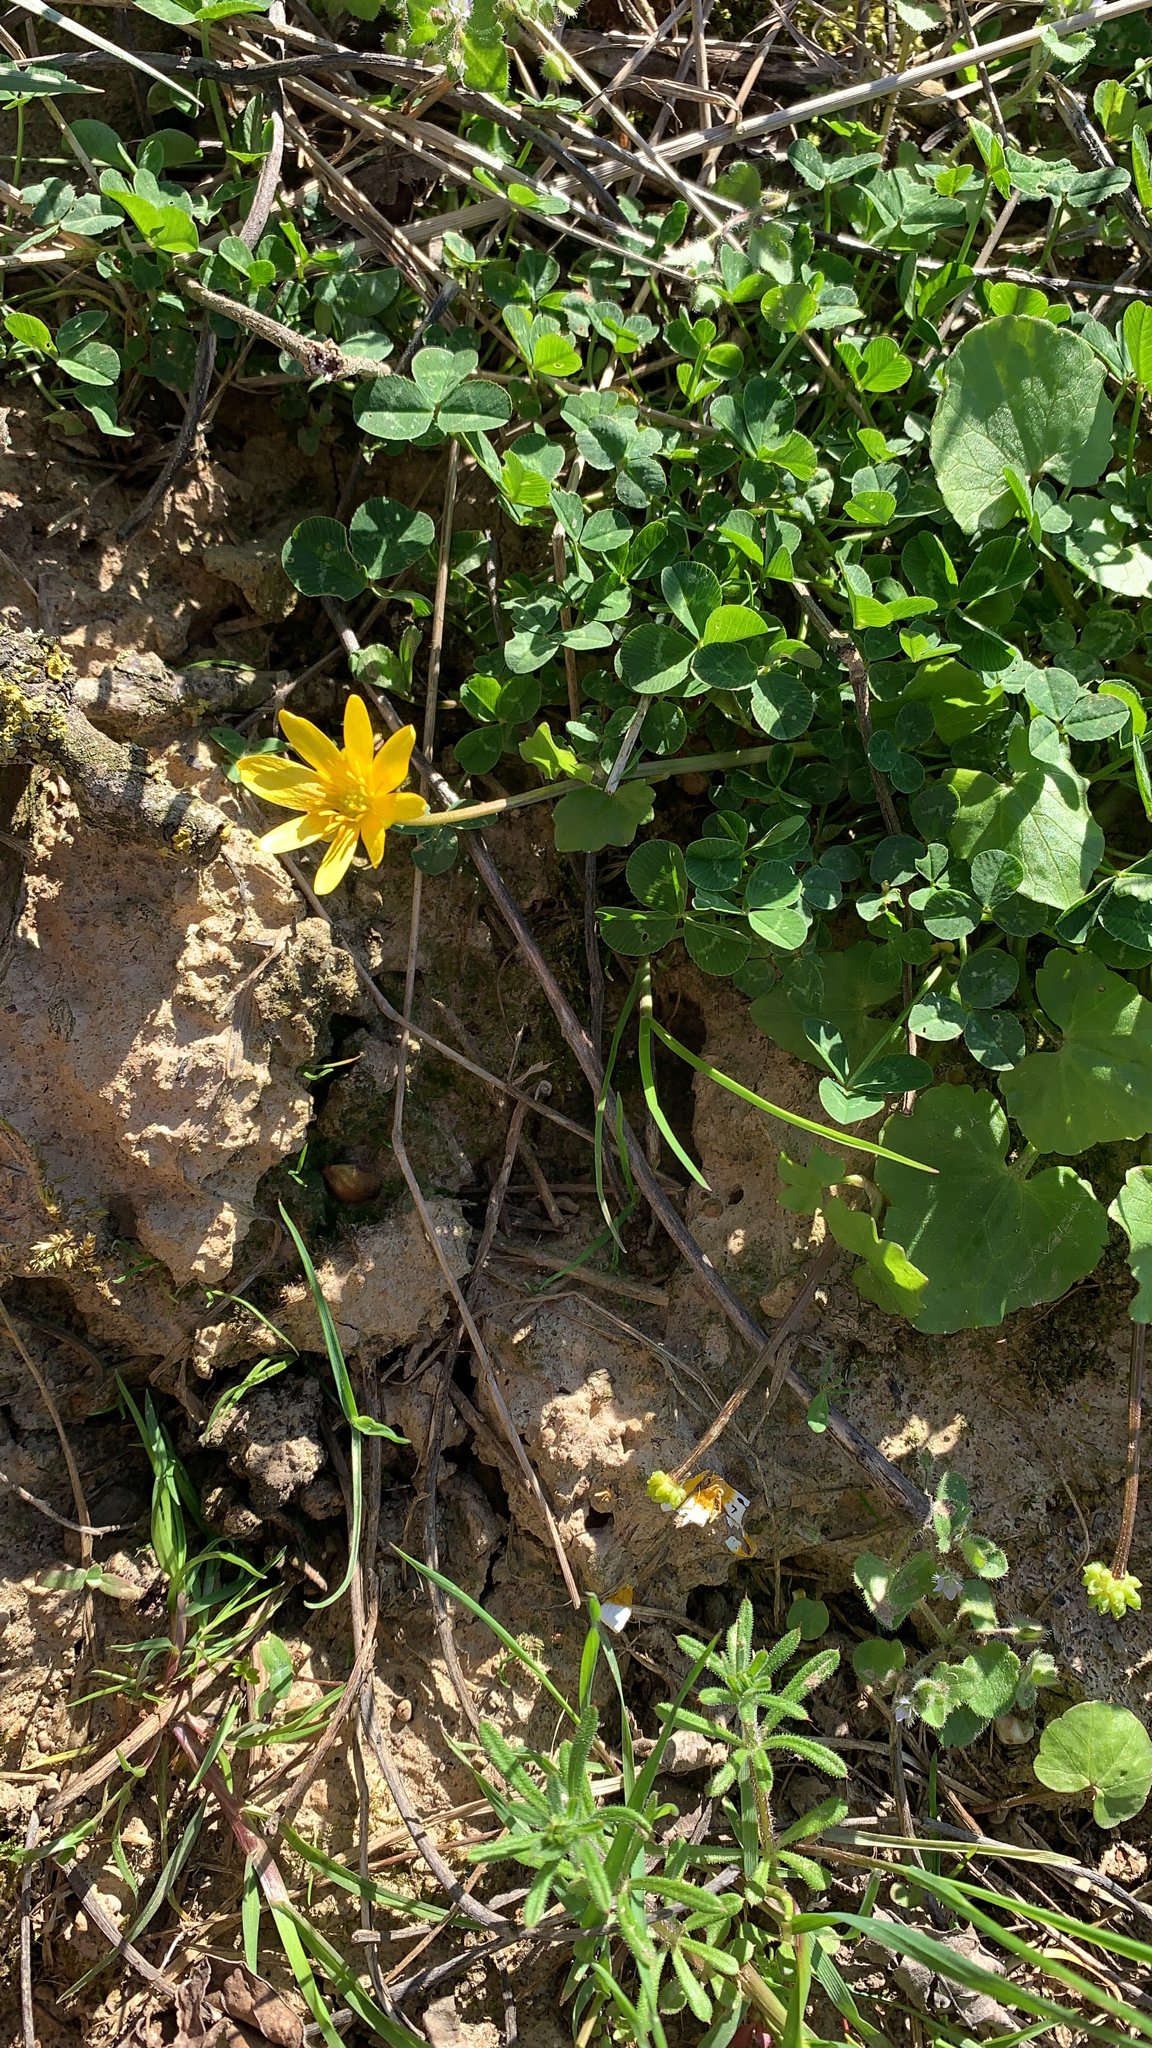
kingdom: Plantae
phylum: Tracheophyta
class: Magnoliopsida
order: Ranunculales
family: Ranunculaceae
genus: Ficaria
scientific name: Ficaria verna
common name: Lesser celandine
